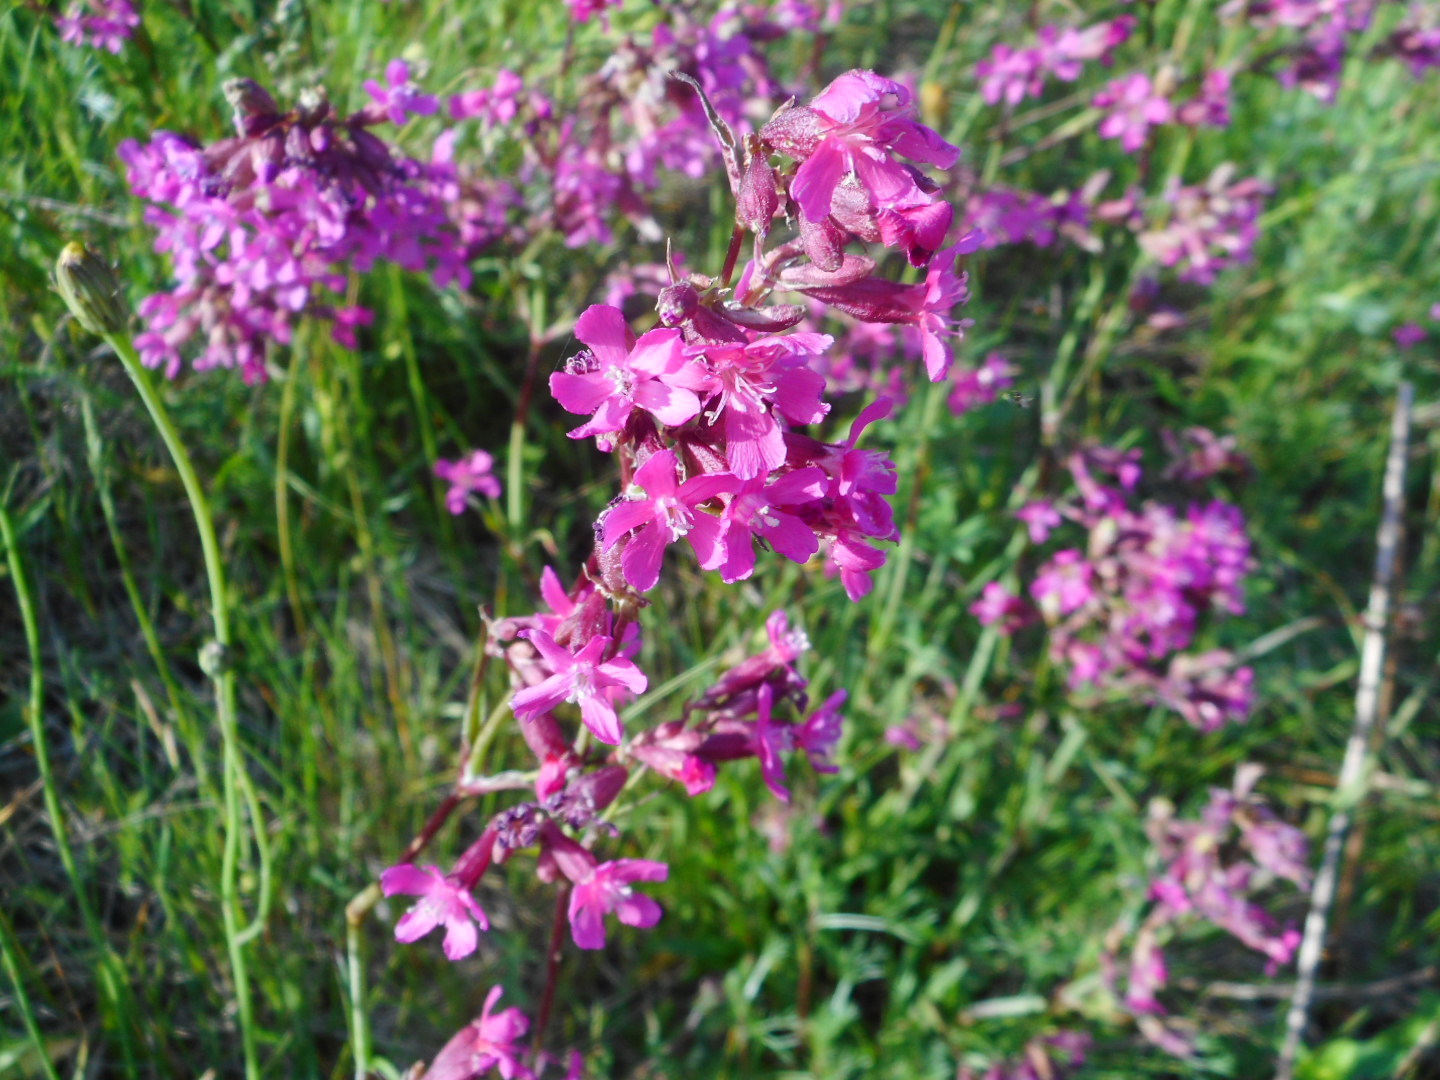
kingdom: Plantae
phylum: Tracheophyta
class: Magnoliopsida
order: Caryophyllales
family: Caryophyllaceae
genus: Viscaria
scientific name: Viscaria vulgaris
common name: Clammy campion
